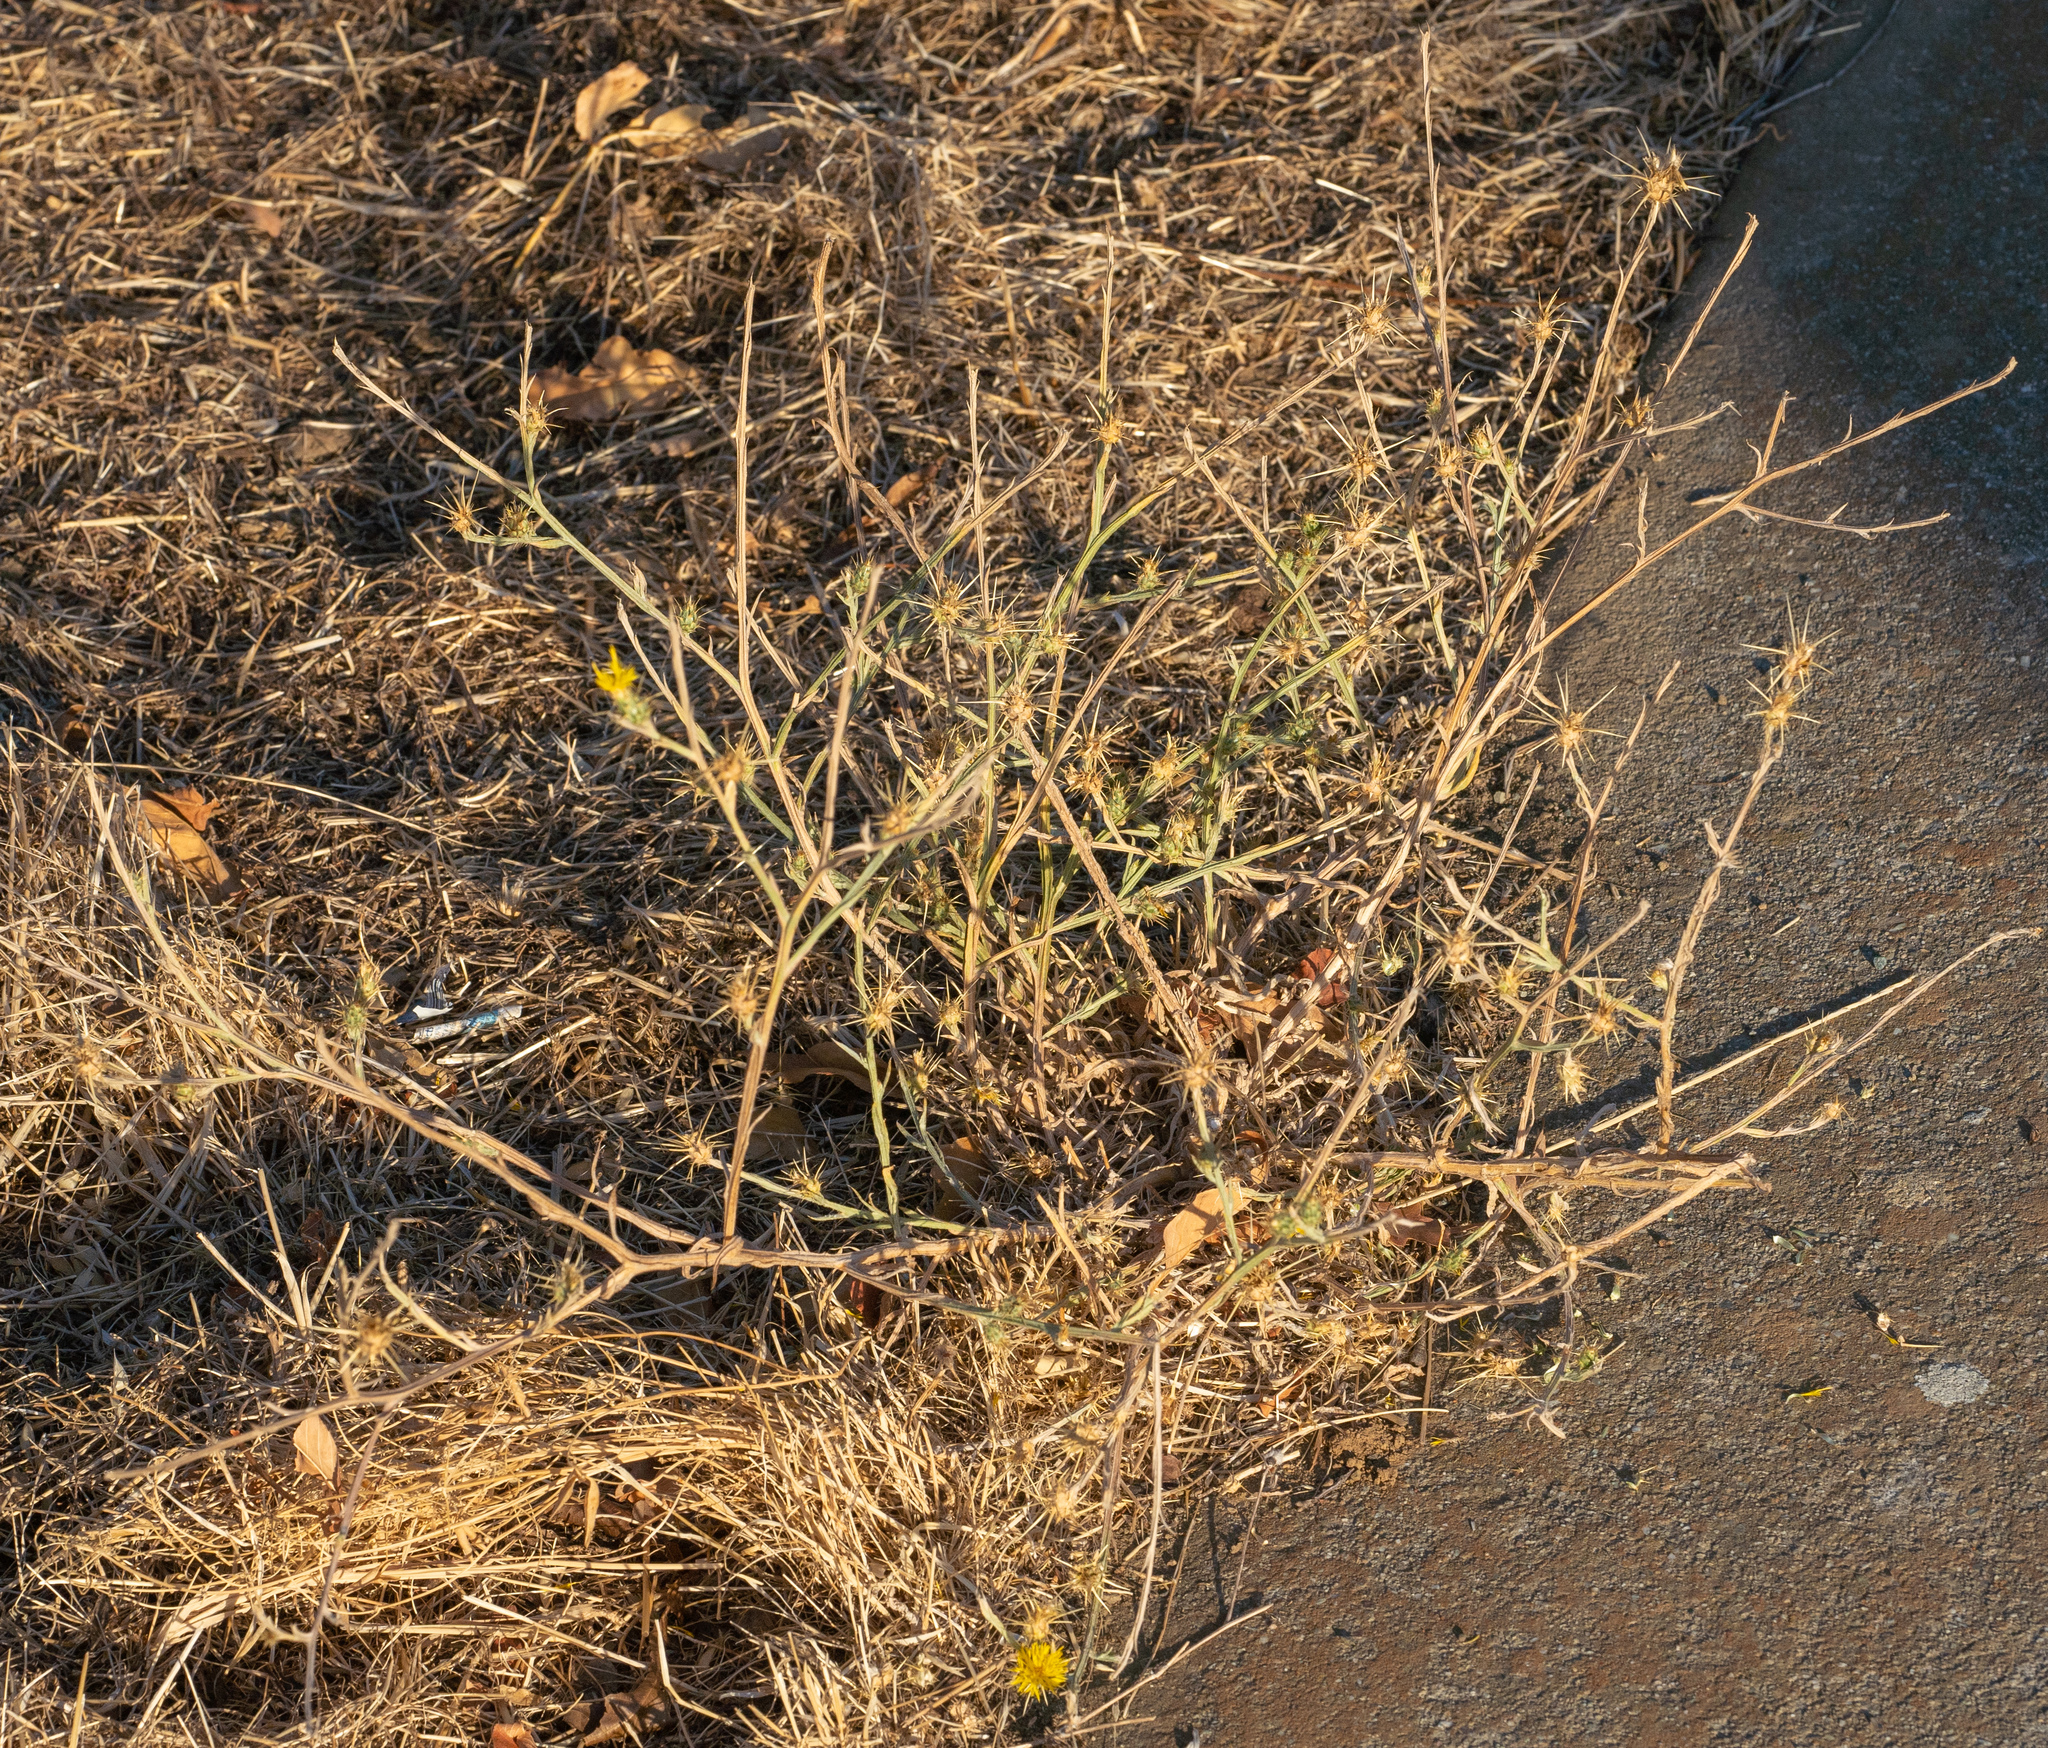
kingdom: Plantae
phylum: Tracheophyta
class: Magnoliopsida
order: Asterales
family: Asteraceae
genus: Centaurea
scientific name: Centaurea solstitialis
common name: Yellow star-thistle
